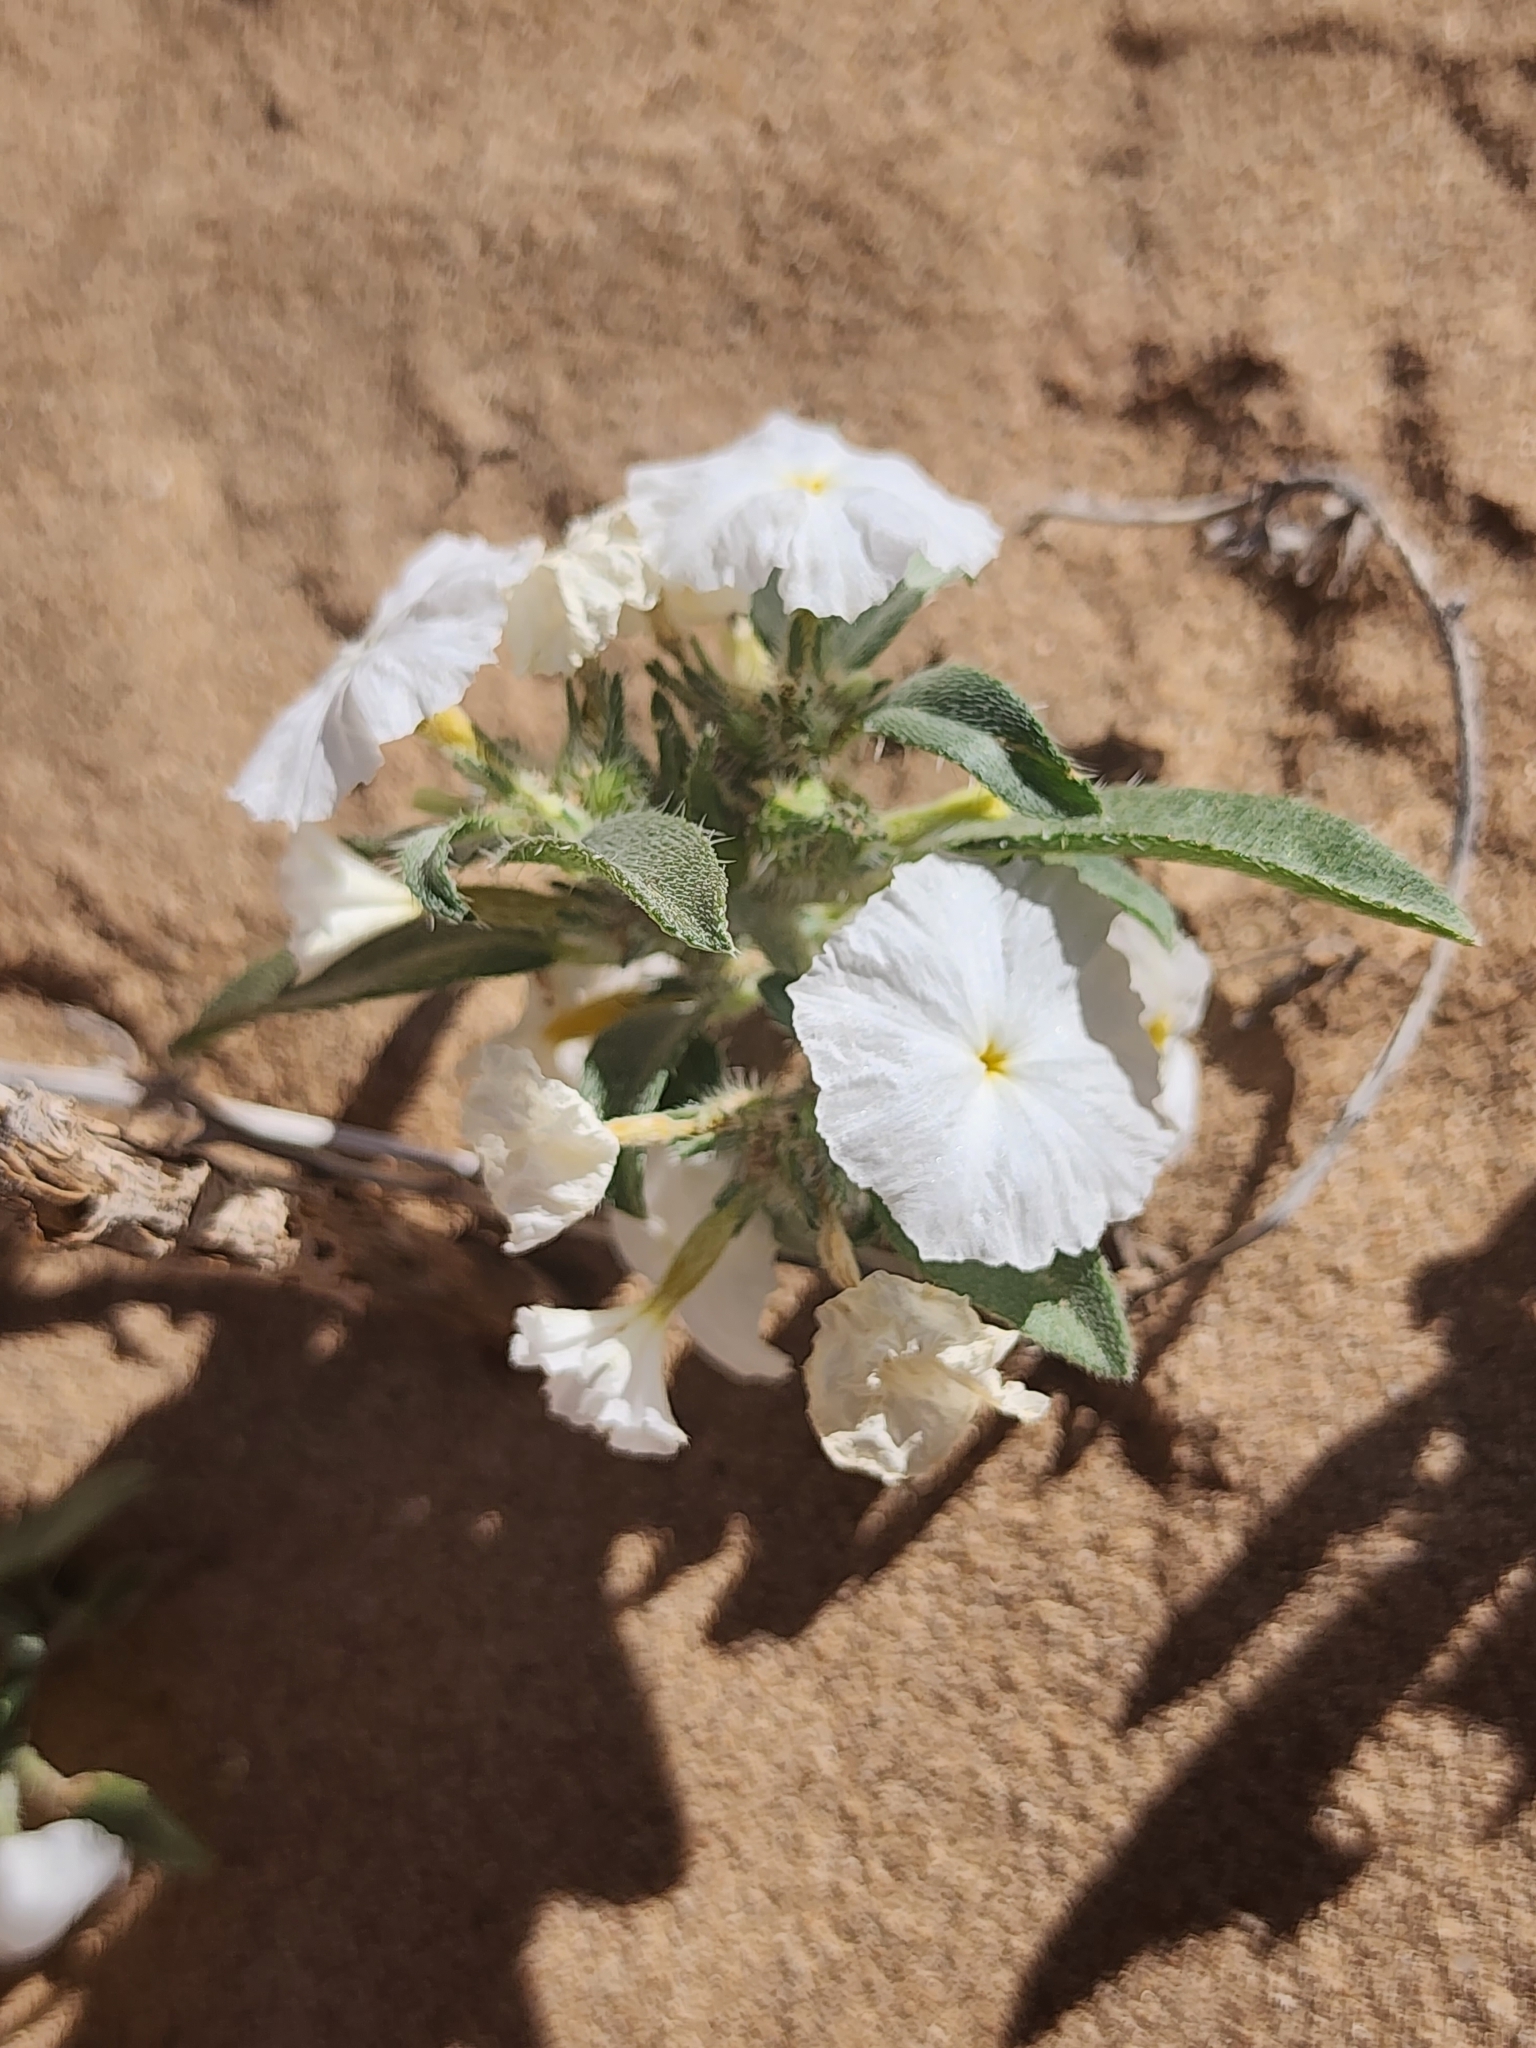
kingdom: Plantae
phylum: Tracheophyta
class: Magnoliopsida
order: Boraginales
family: Heliotropiaceae
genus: Euploca
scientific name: Euploca convolvulacea
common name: Bindweed heliotrope
